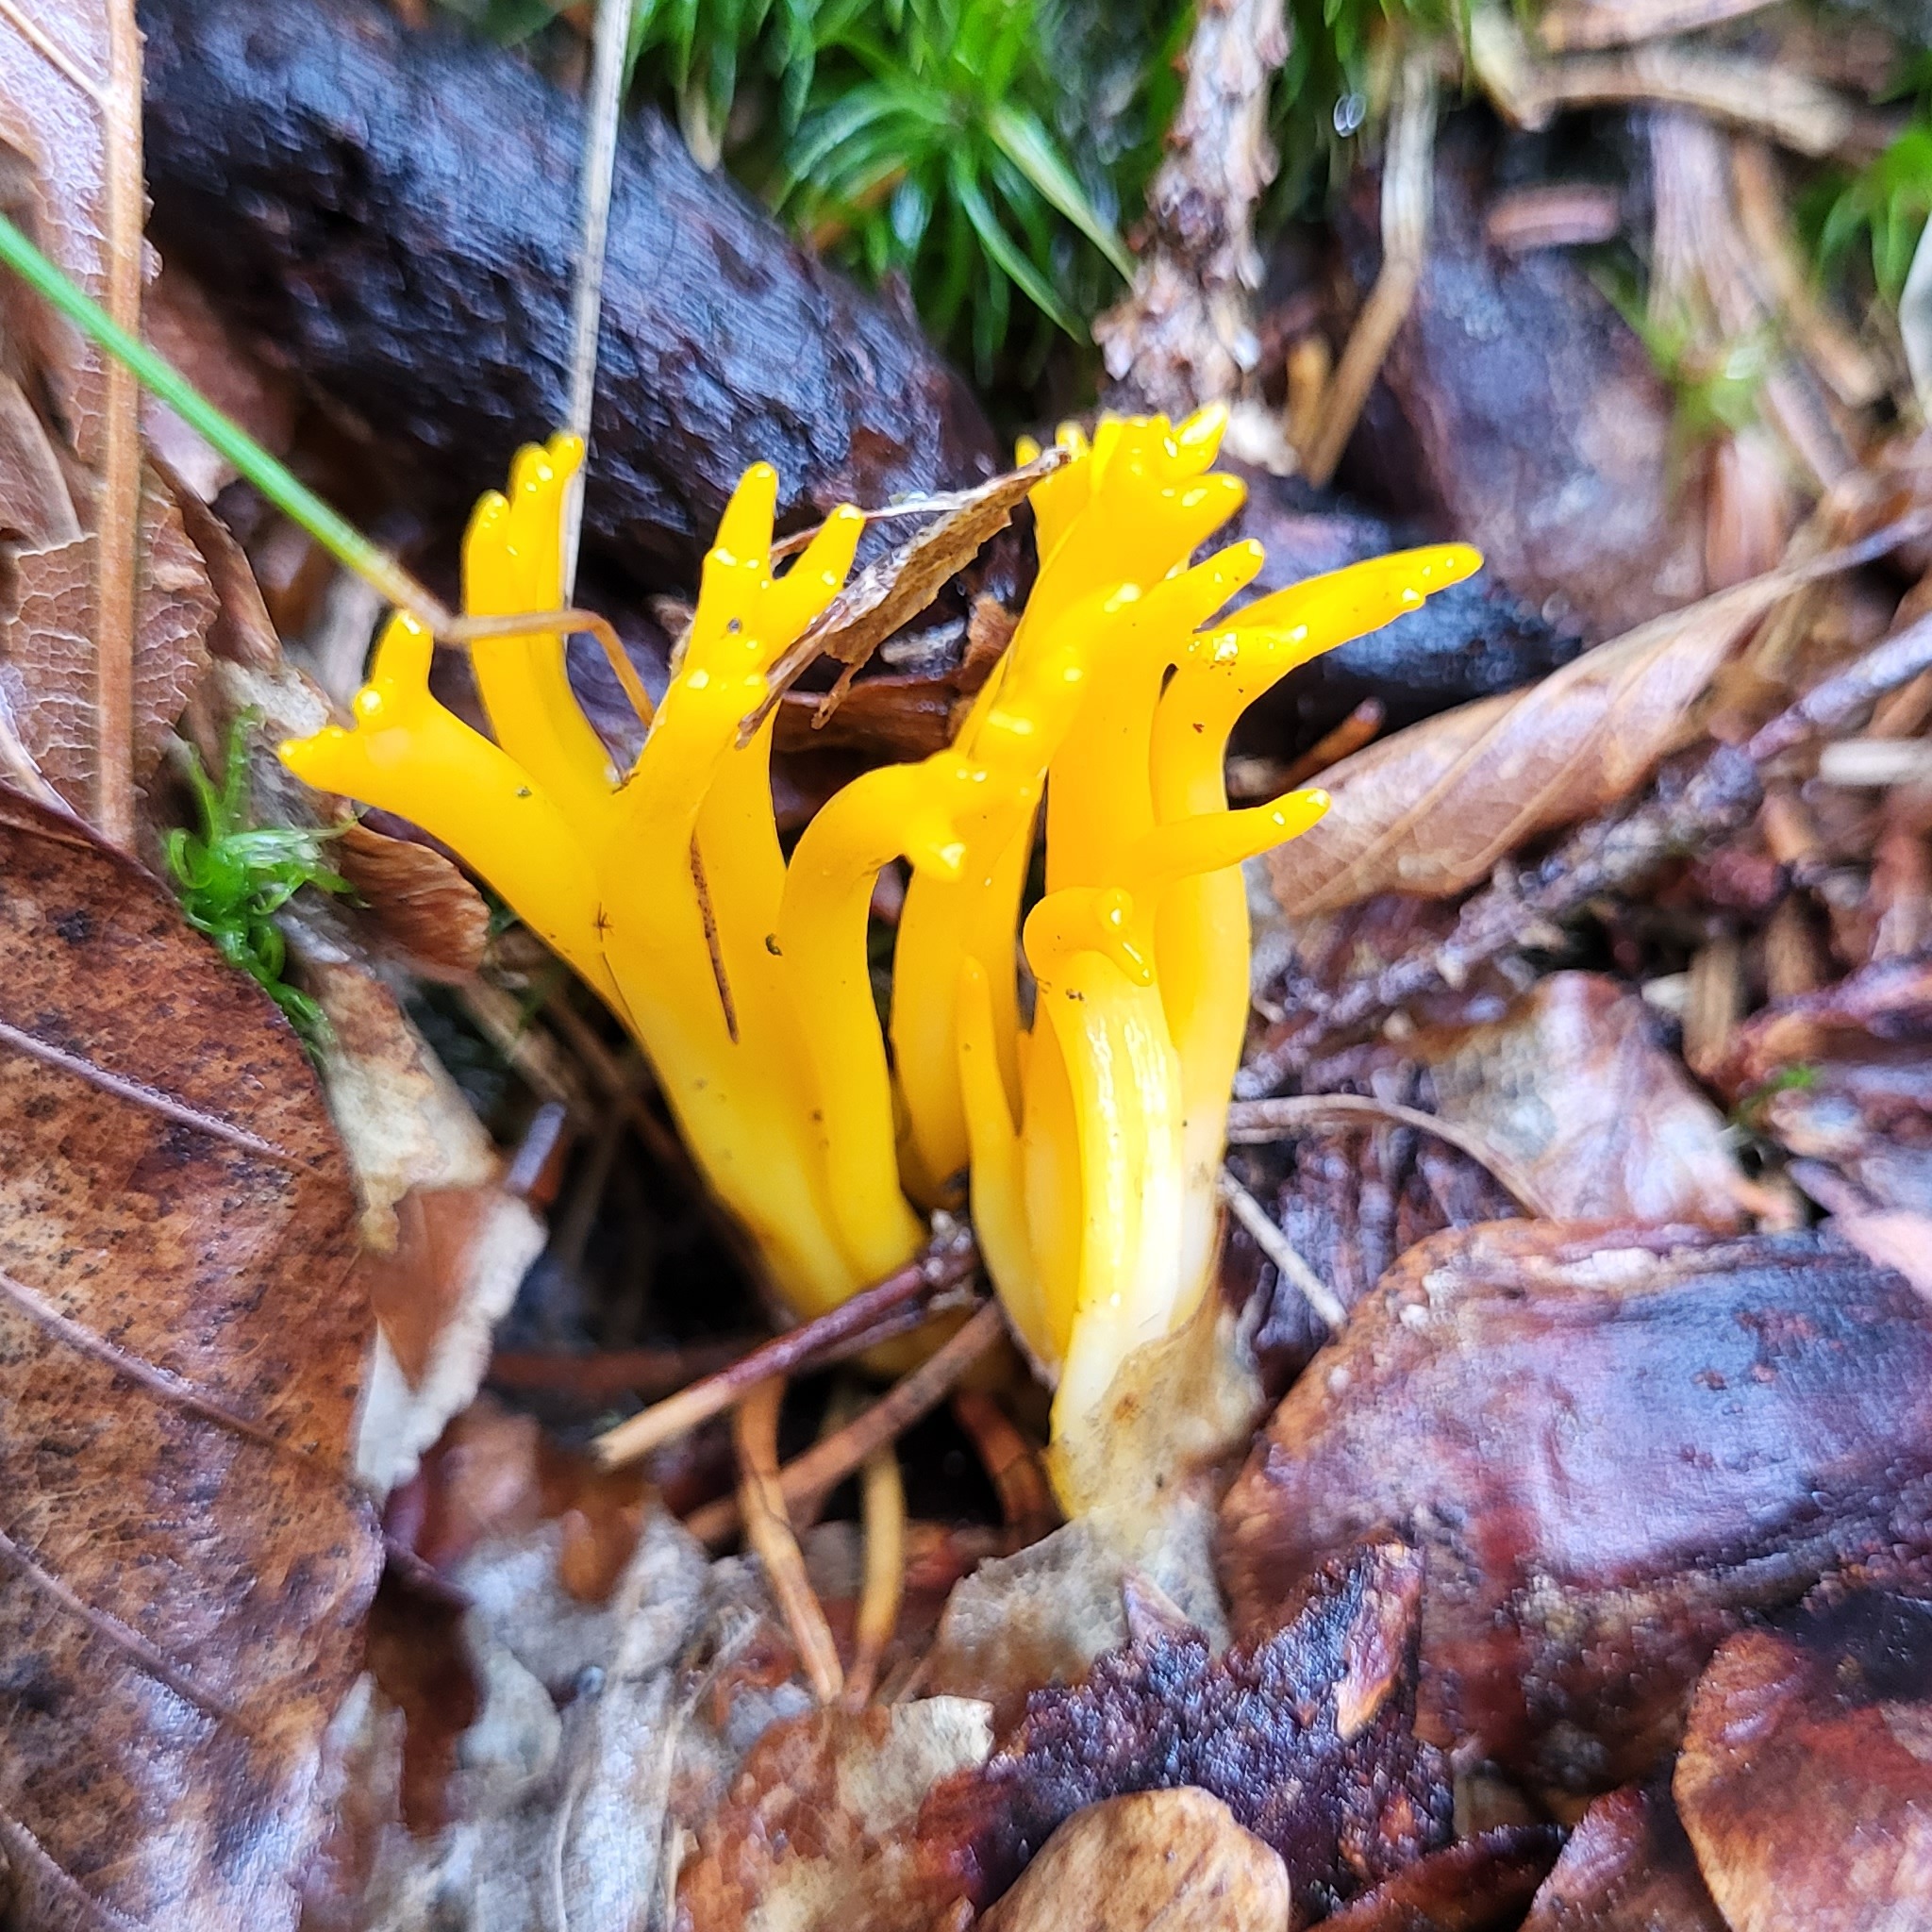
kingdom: Fungi
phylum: Basidiomycota
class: Dacrymycetes
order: Dacrymycetales
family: Dacrymycetaceae
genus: Calocera
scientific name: Calocera viscosa
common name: Yellow stagshorn
